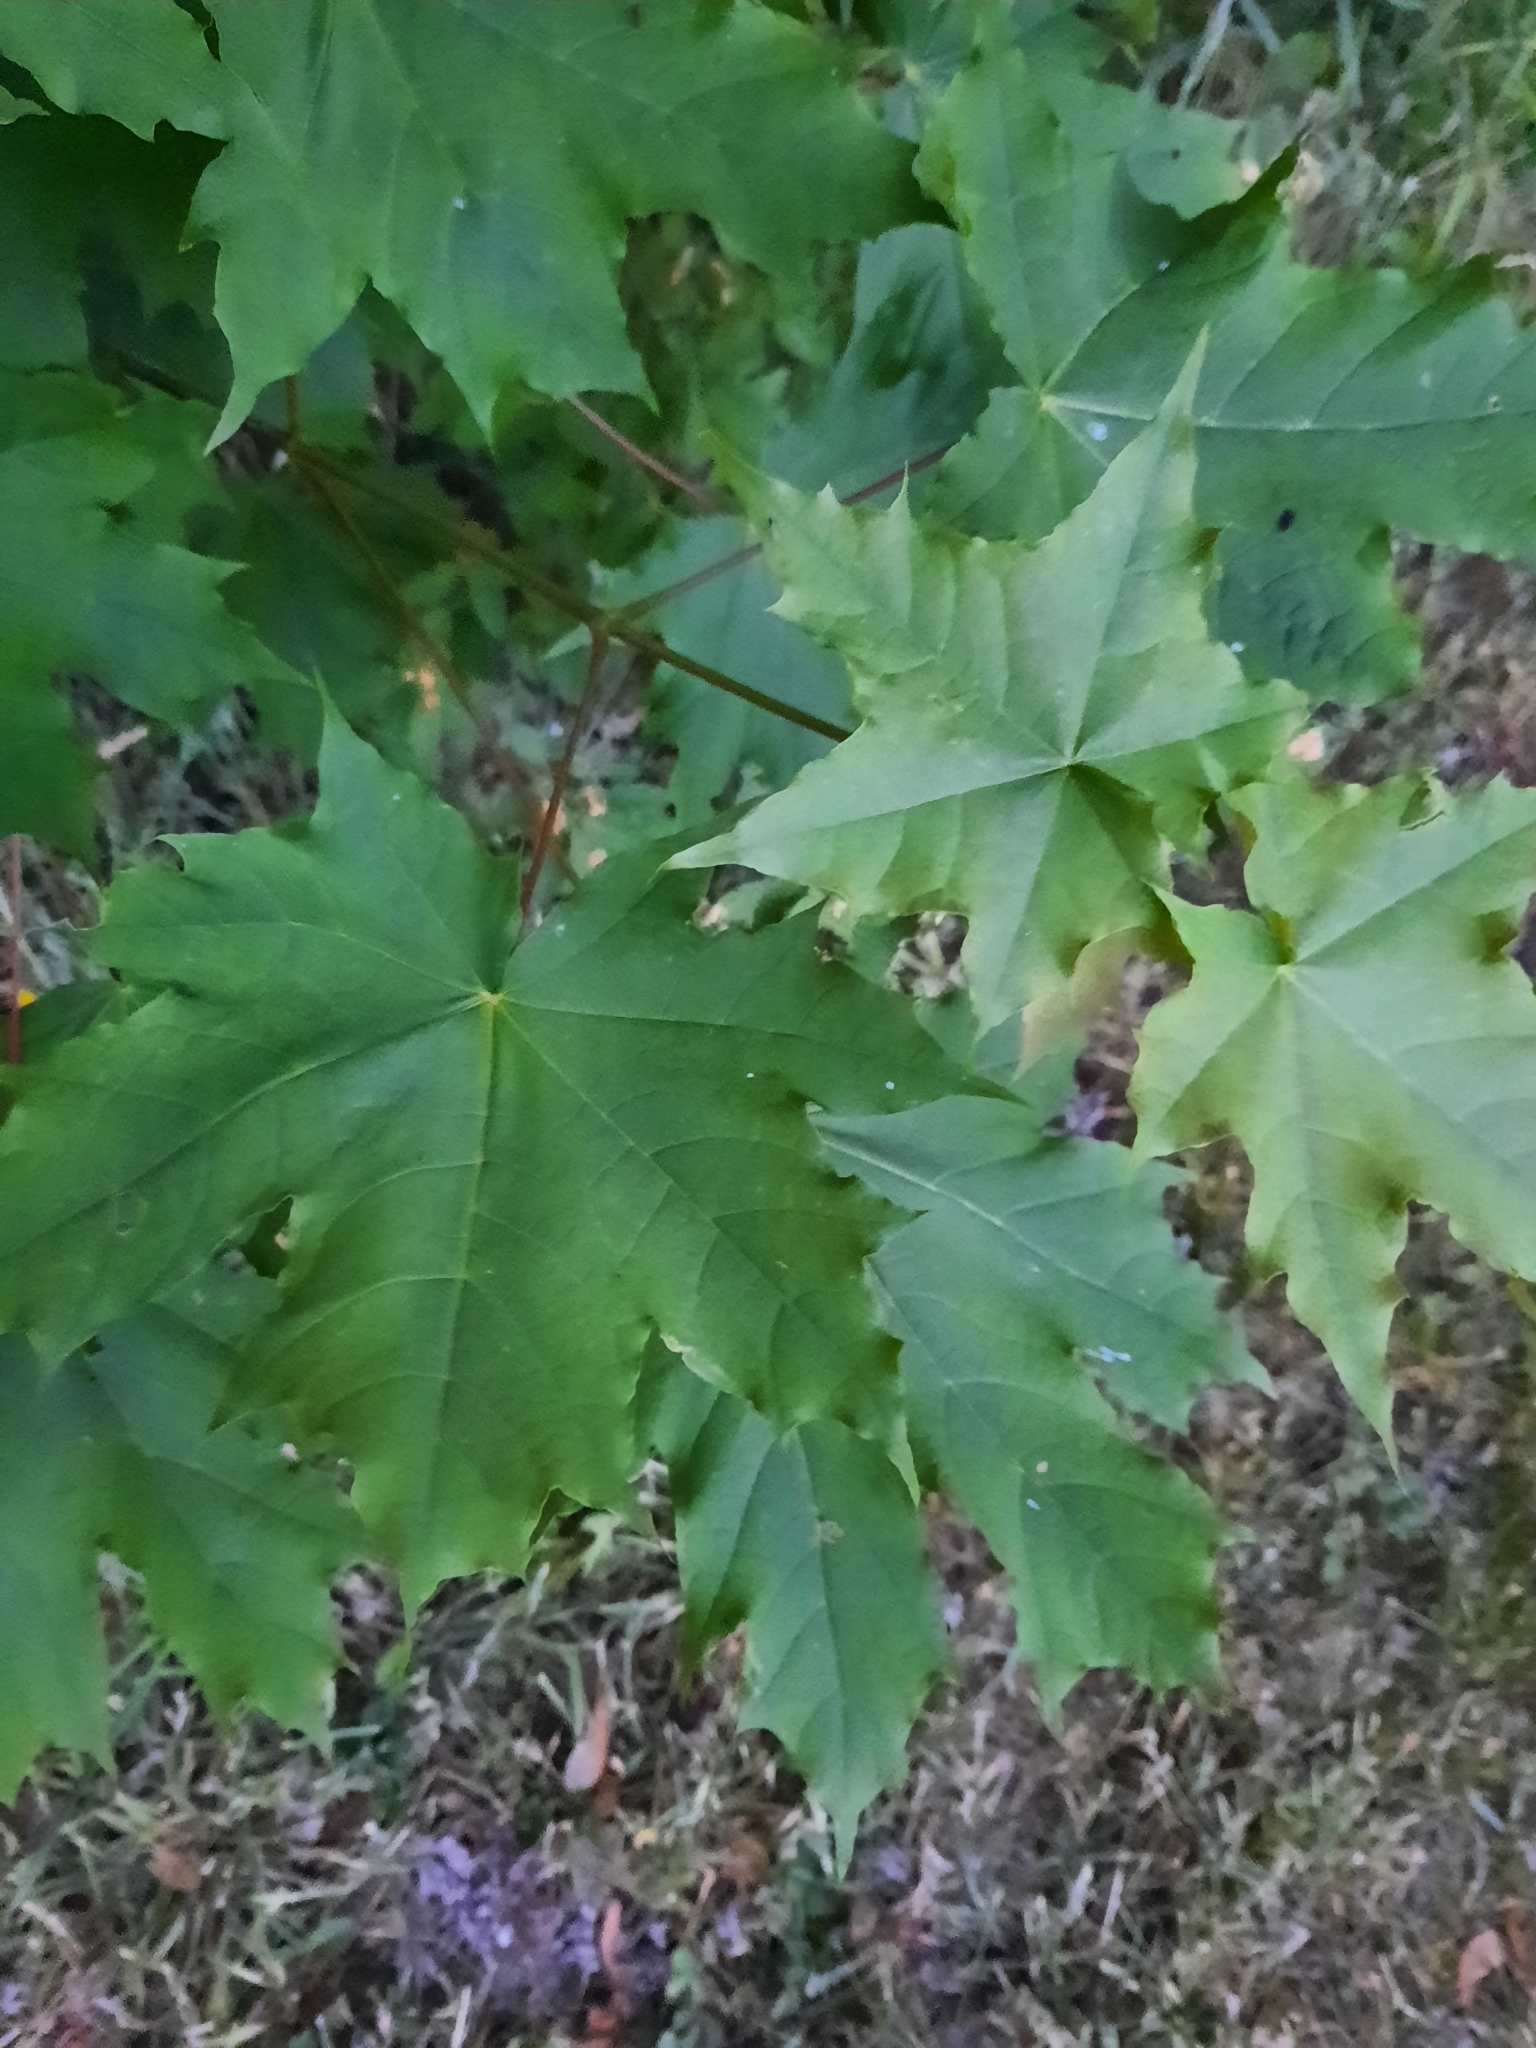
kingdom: Plantae
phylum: Tracheophyta
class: Magnoliopsida
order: Sapindales
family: Sapindaceae
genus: Acer
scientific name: Acer platanoides
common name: Norway maple
